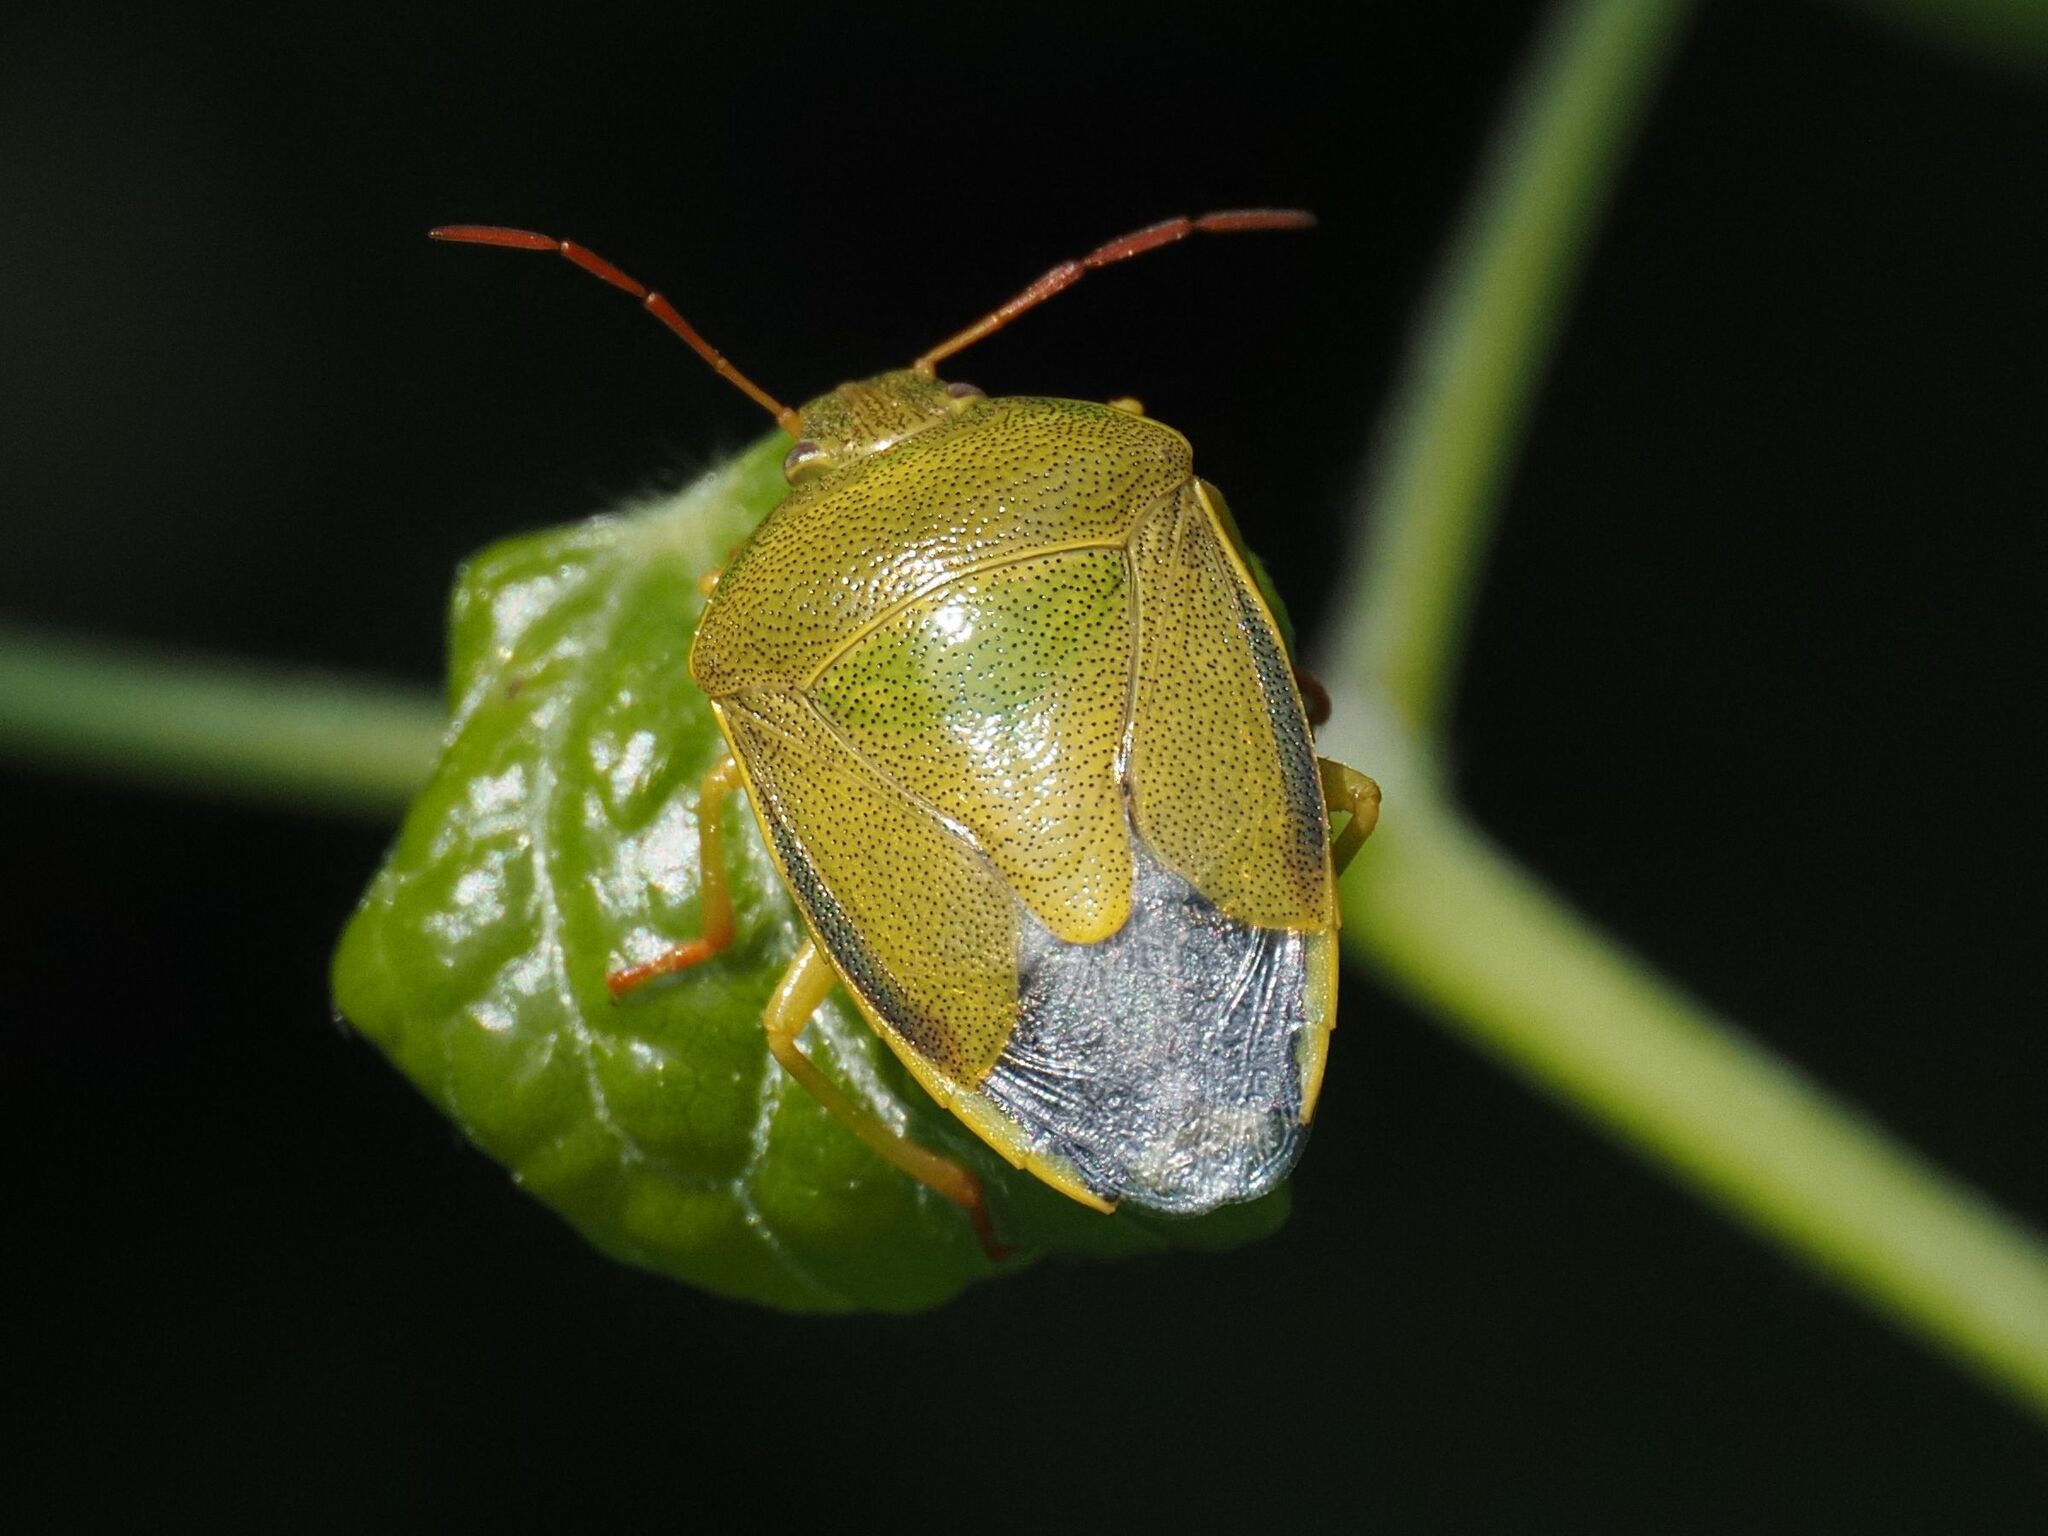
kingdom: Animalia
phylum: Arthropoda
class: Insecta
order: Hemiptera
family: Pentatomidae
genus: Piezodorus
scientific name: Piezodorus lituratus
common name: Stink bug
